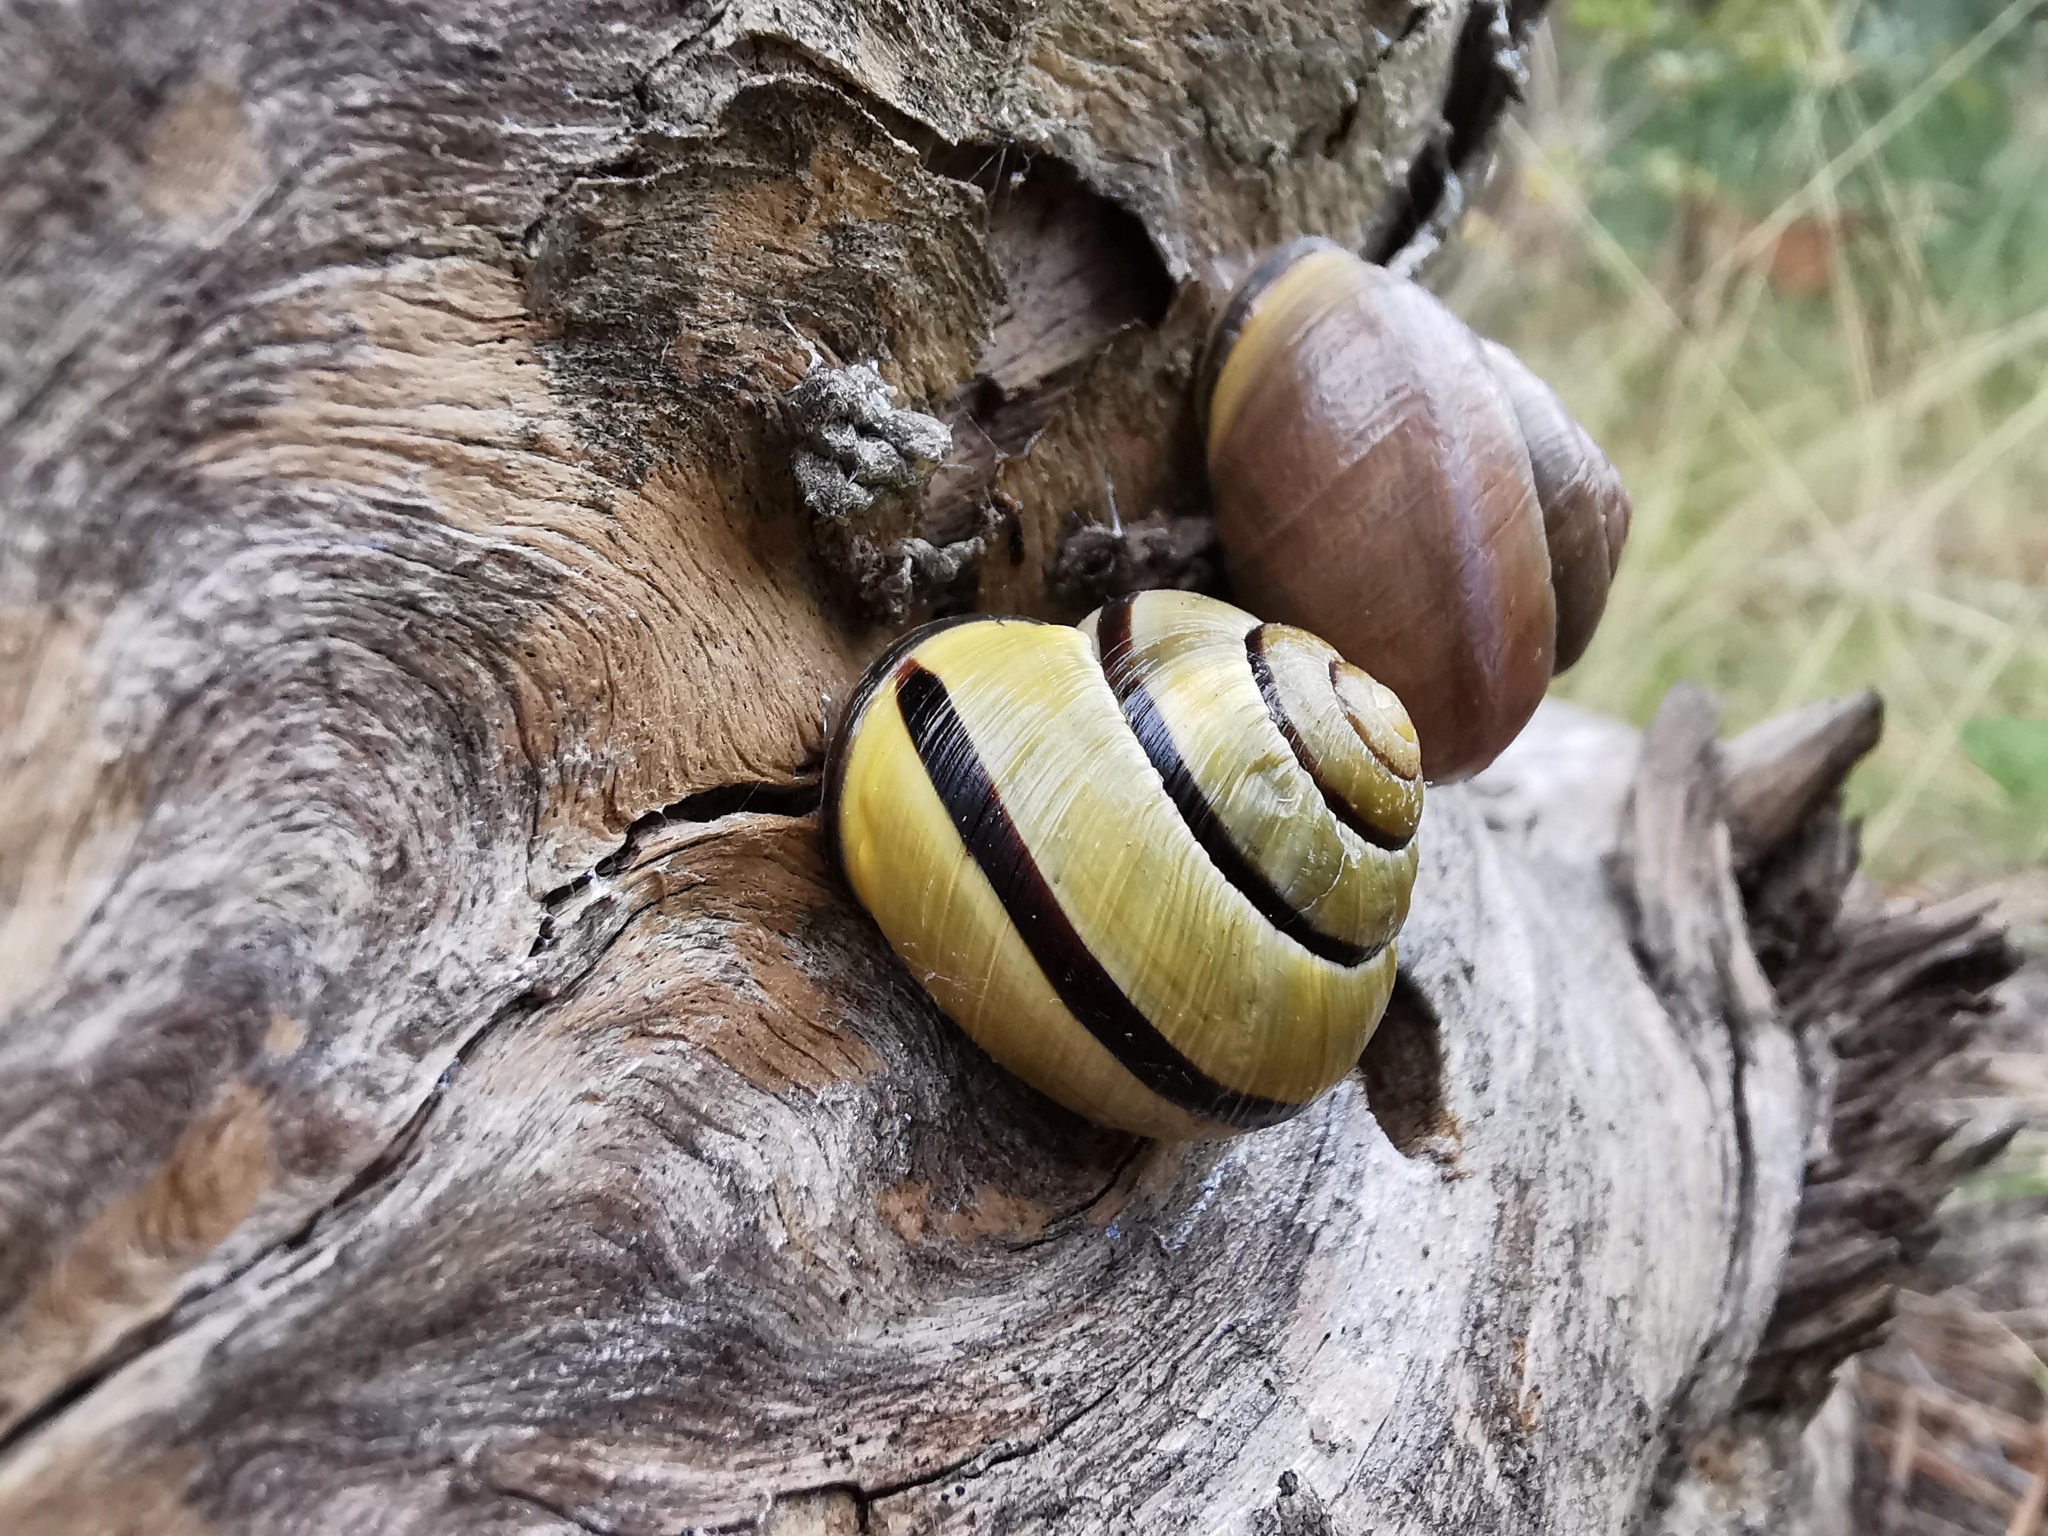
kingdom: Animalia
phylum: Mollusca
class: Gastropoda
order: Stylommatophora
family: Helicidae
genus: Cepaea
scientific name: Cepaea nemoralis
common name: Grovesnail
